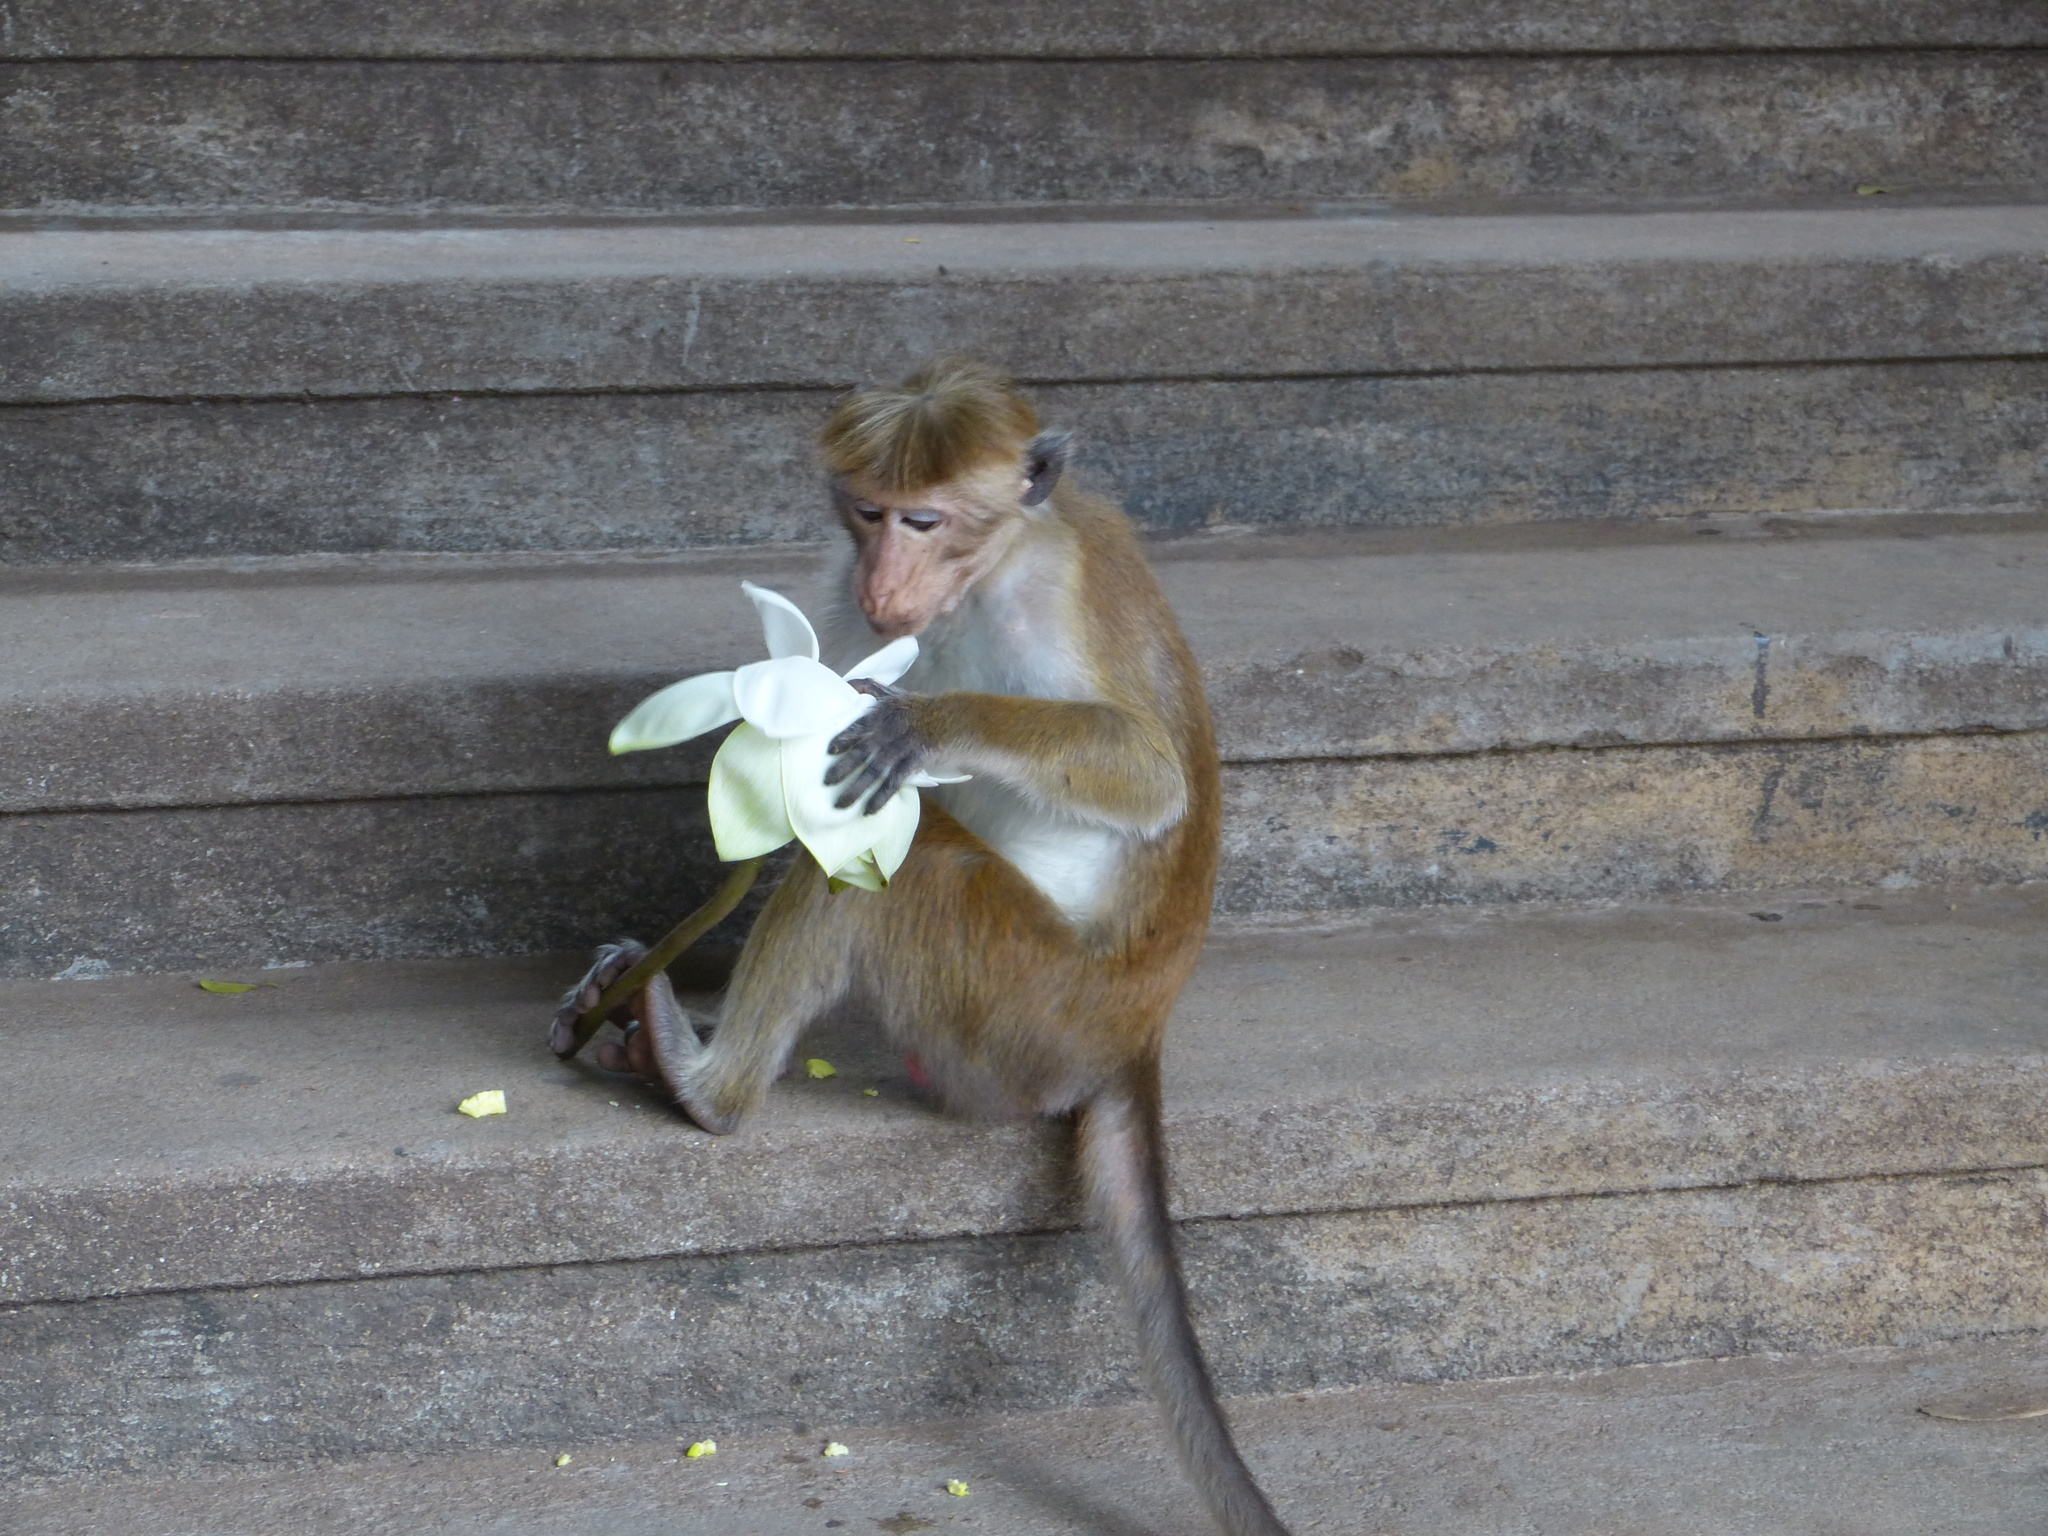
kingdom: Animalia
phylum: Chordata
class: Mammalia
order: Primates
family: Cercopithecidae
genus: Macaca
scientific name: Macaca sinica
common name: Toque macaque
